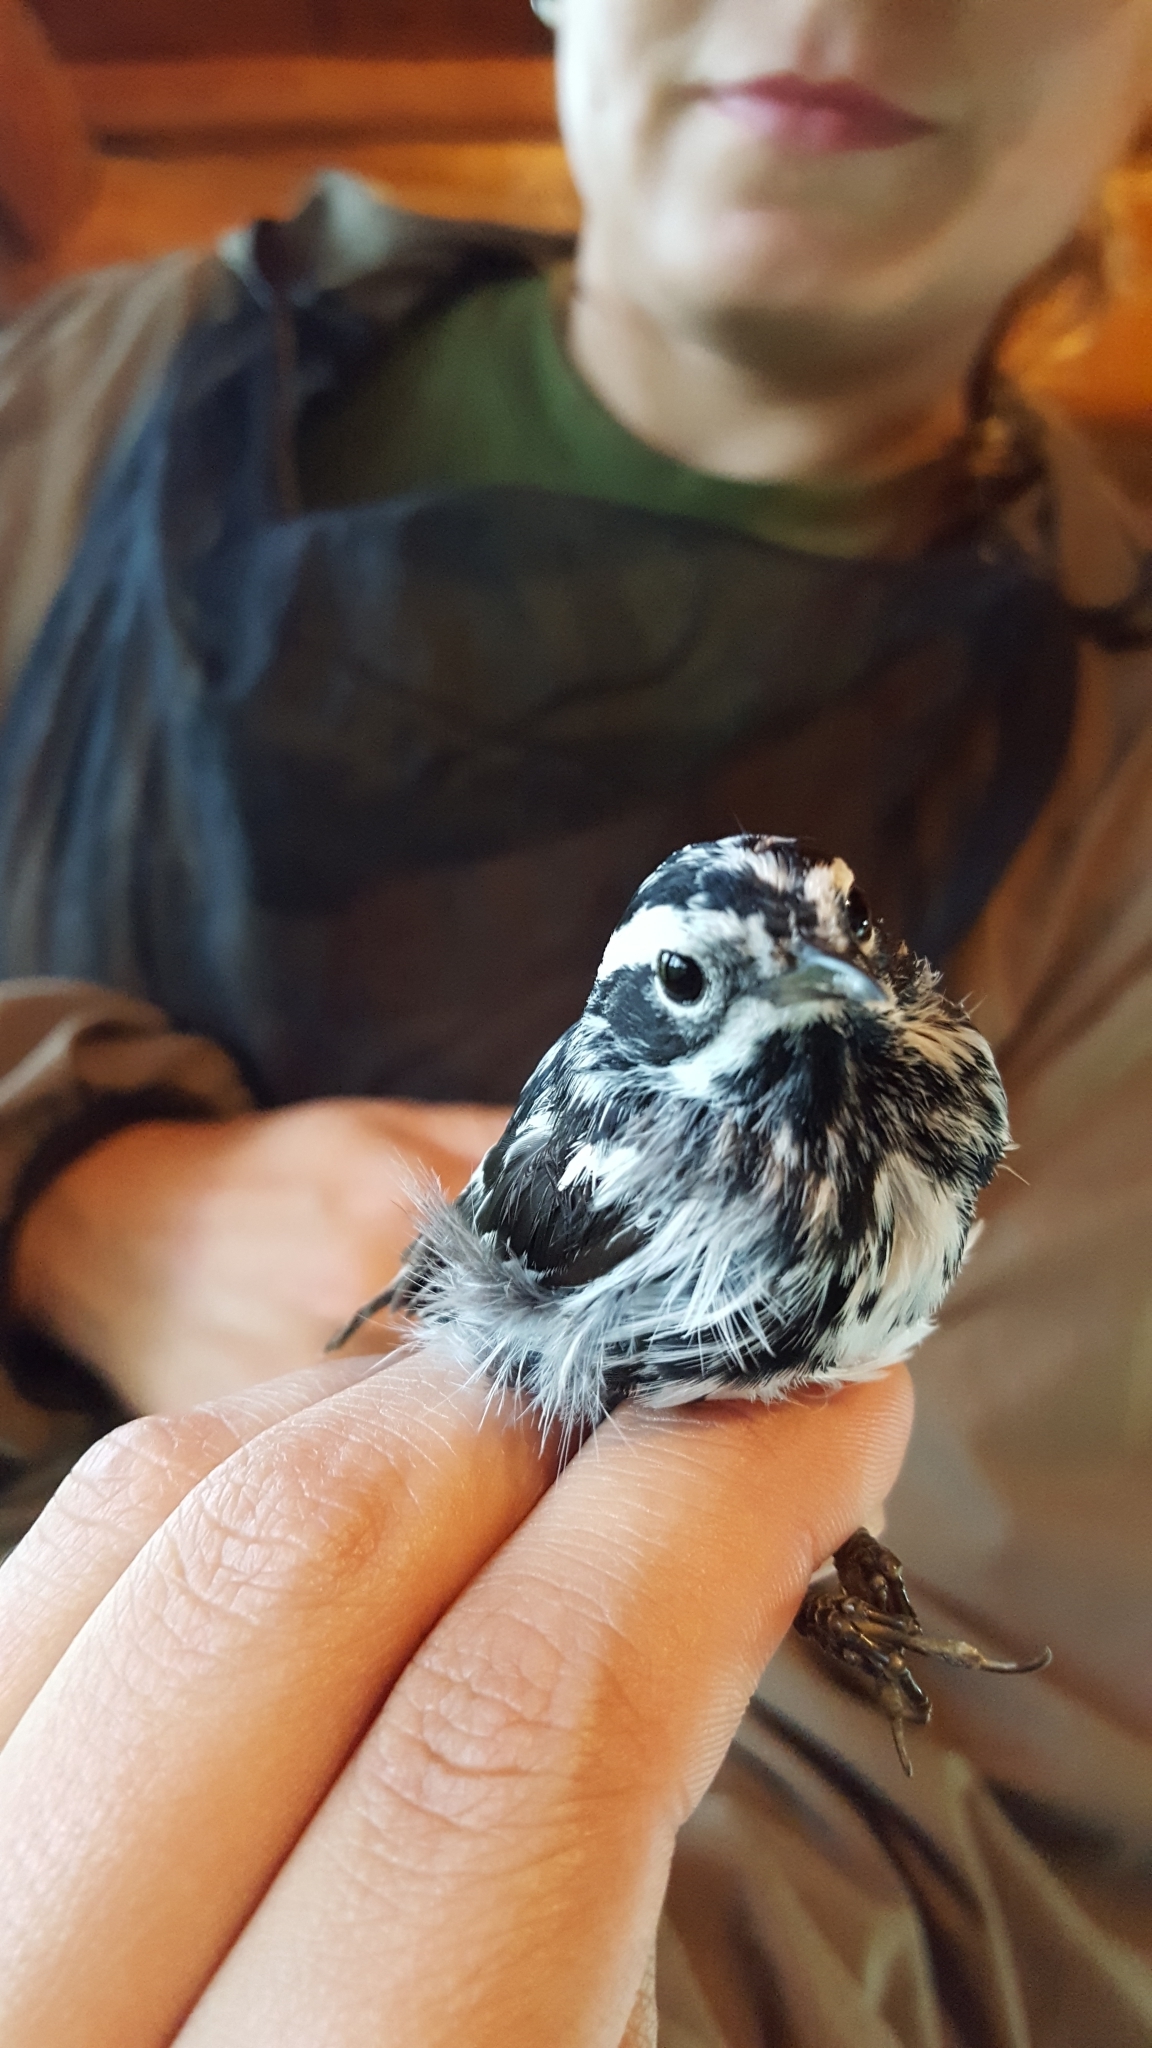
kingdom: Animalia
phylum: Chordata
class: Aves
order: Passeriformes
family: Parulidae
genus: Mniotilta
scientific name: Mniotilta varia
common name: Black-and-white warbler
